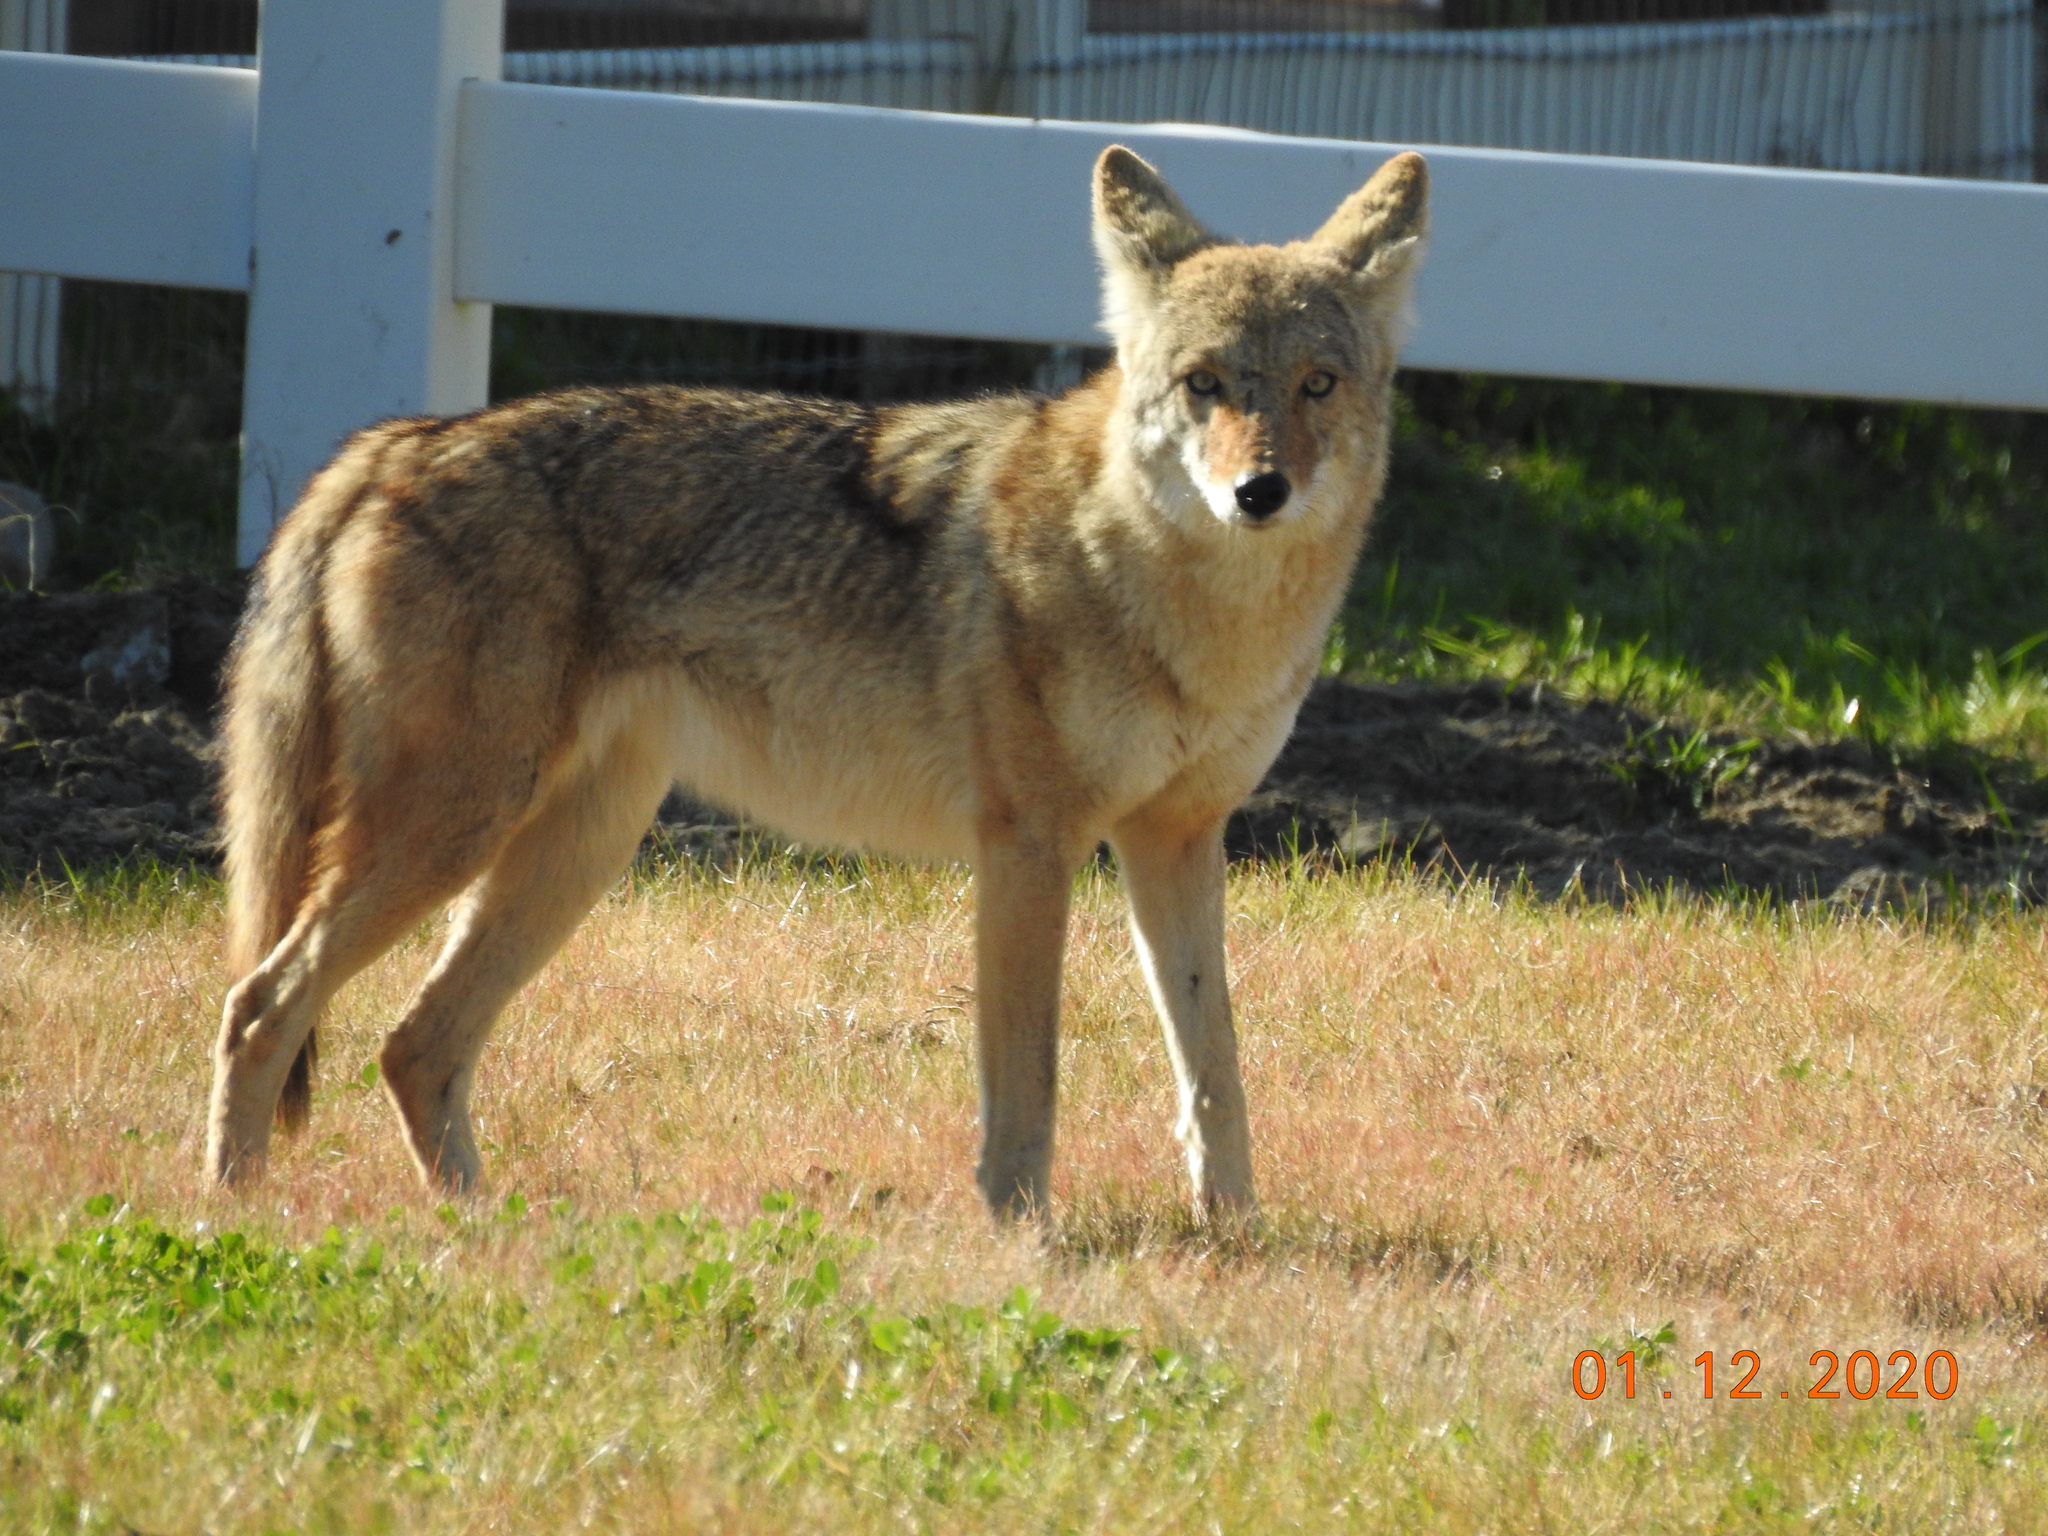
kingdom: Animalia
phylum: Chordata
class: Mammalia
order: Carnivora
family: Canidae
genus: Canis
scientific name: Canis latrans
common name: Coyote
